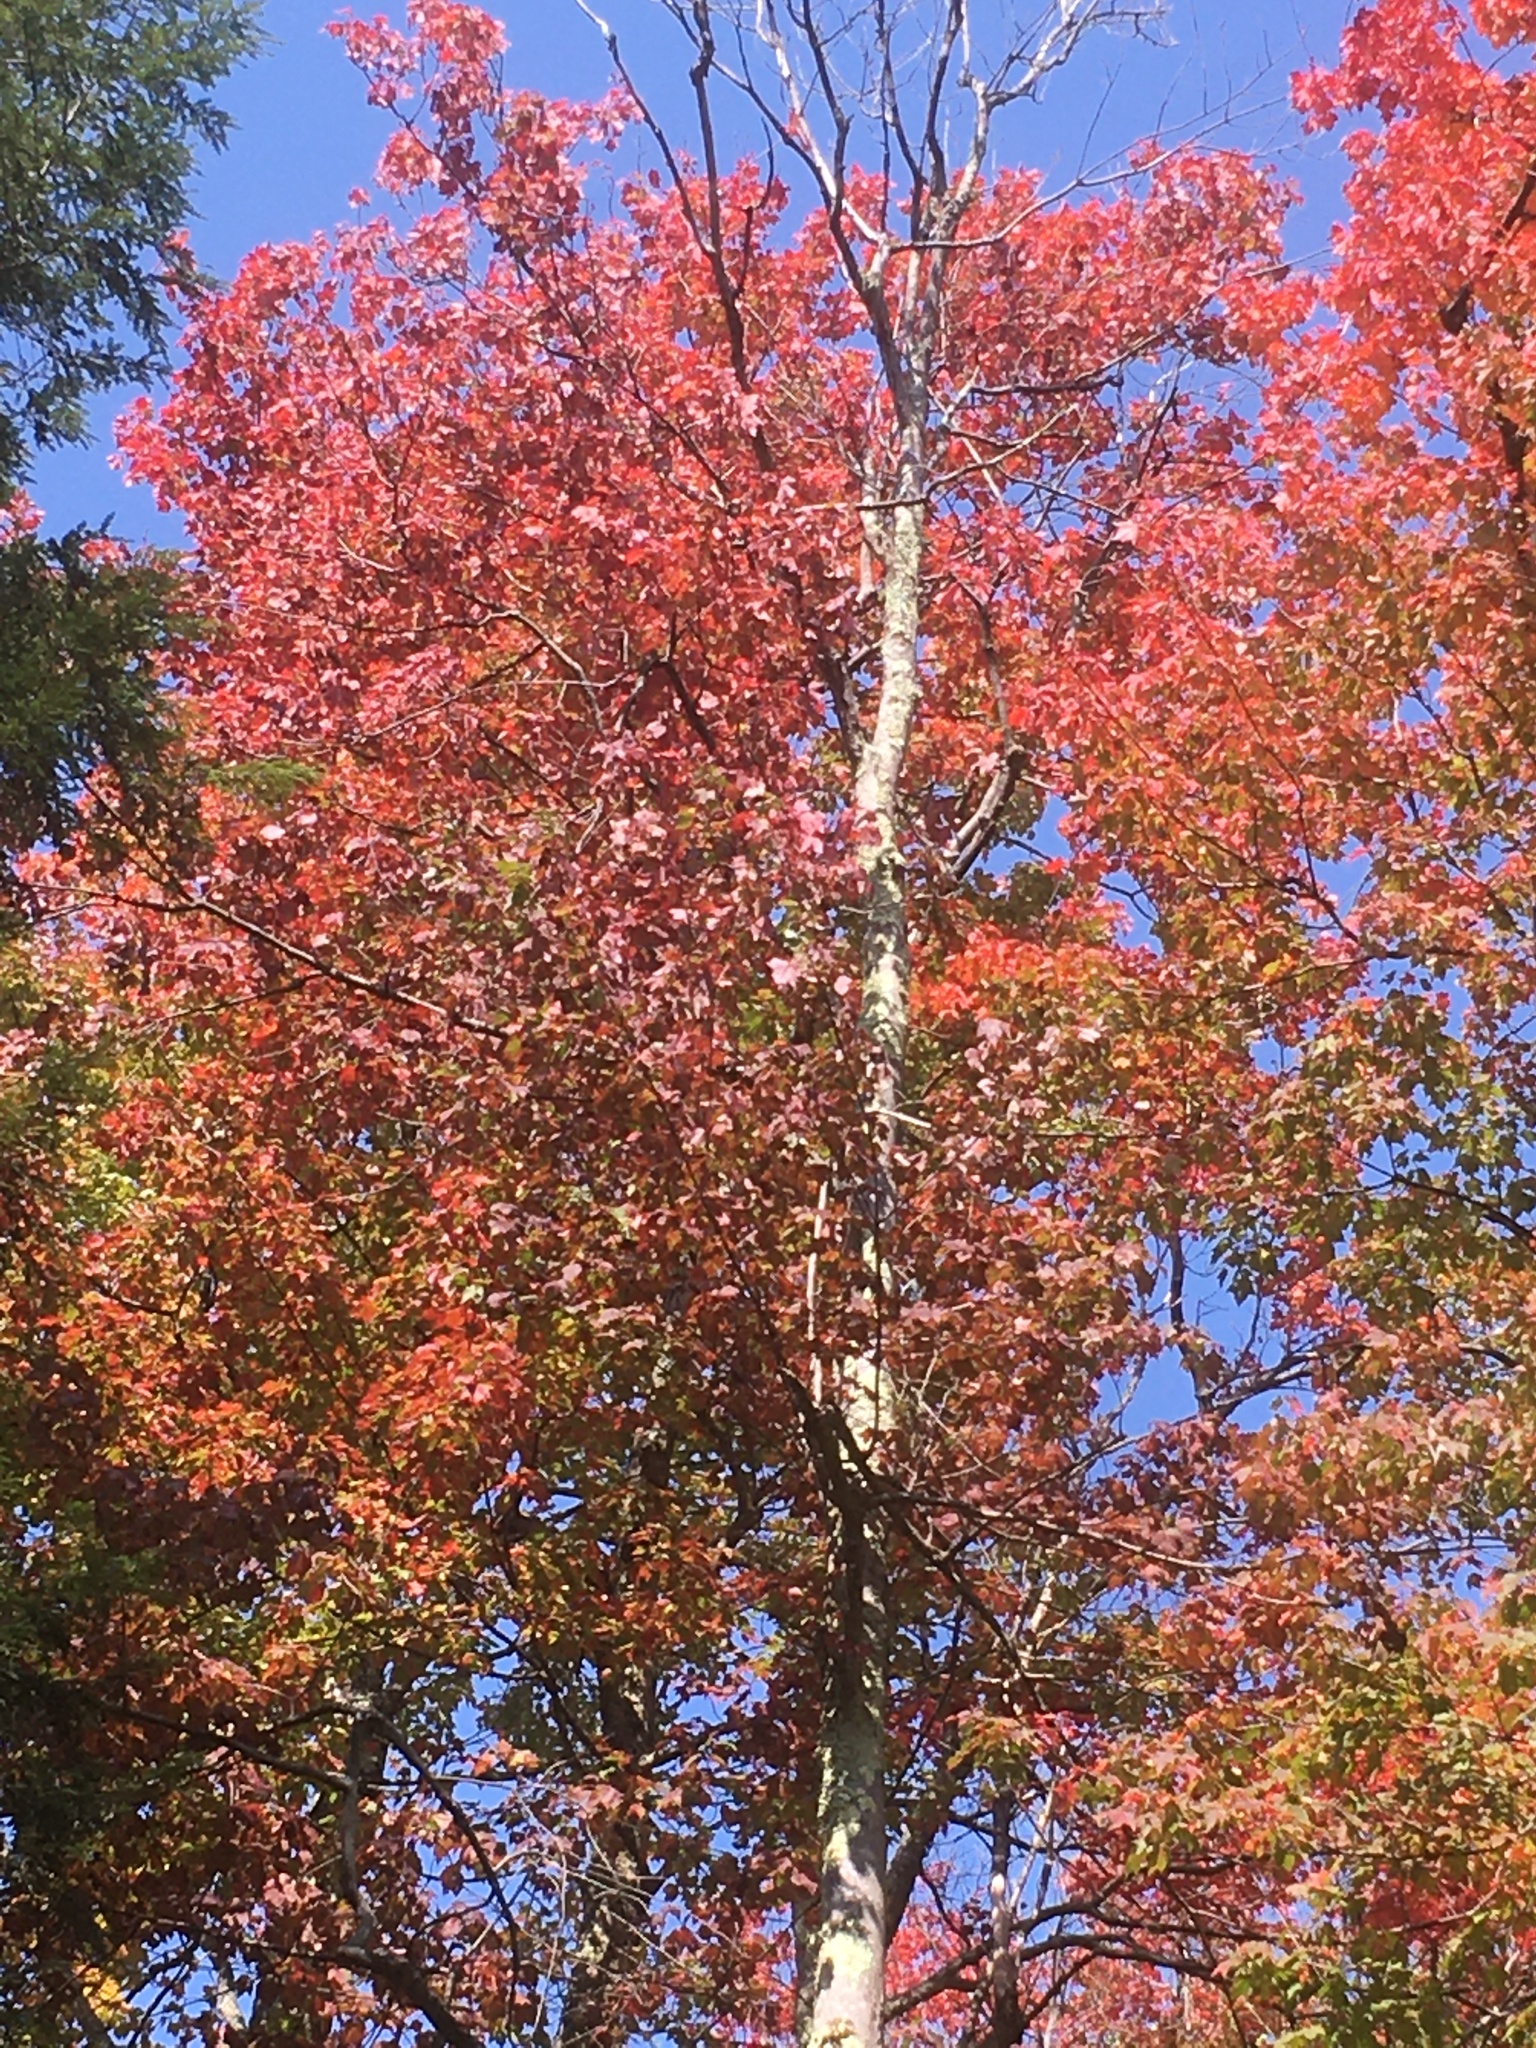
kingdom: Plantae
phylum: Tracheophyta
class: Magnoliopsida
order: Sapindales
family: Sapindaceae
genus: Acer
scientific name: Acer rubrum
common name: Red maple
